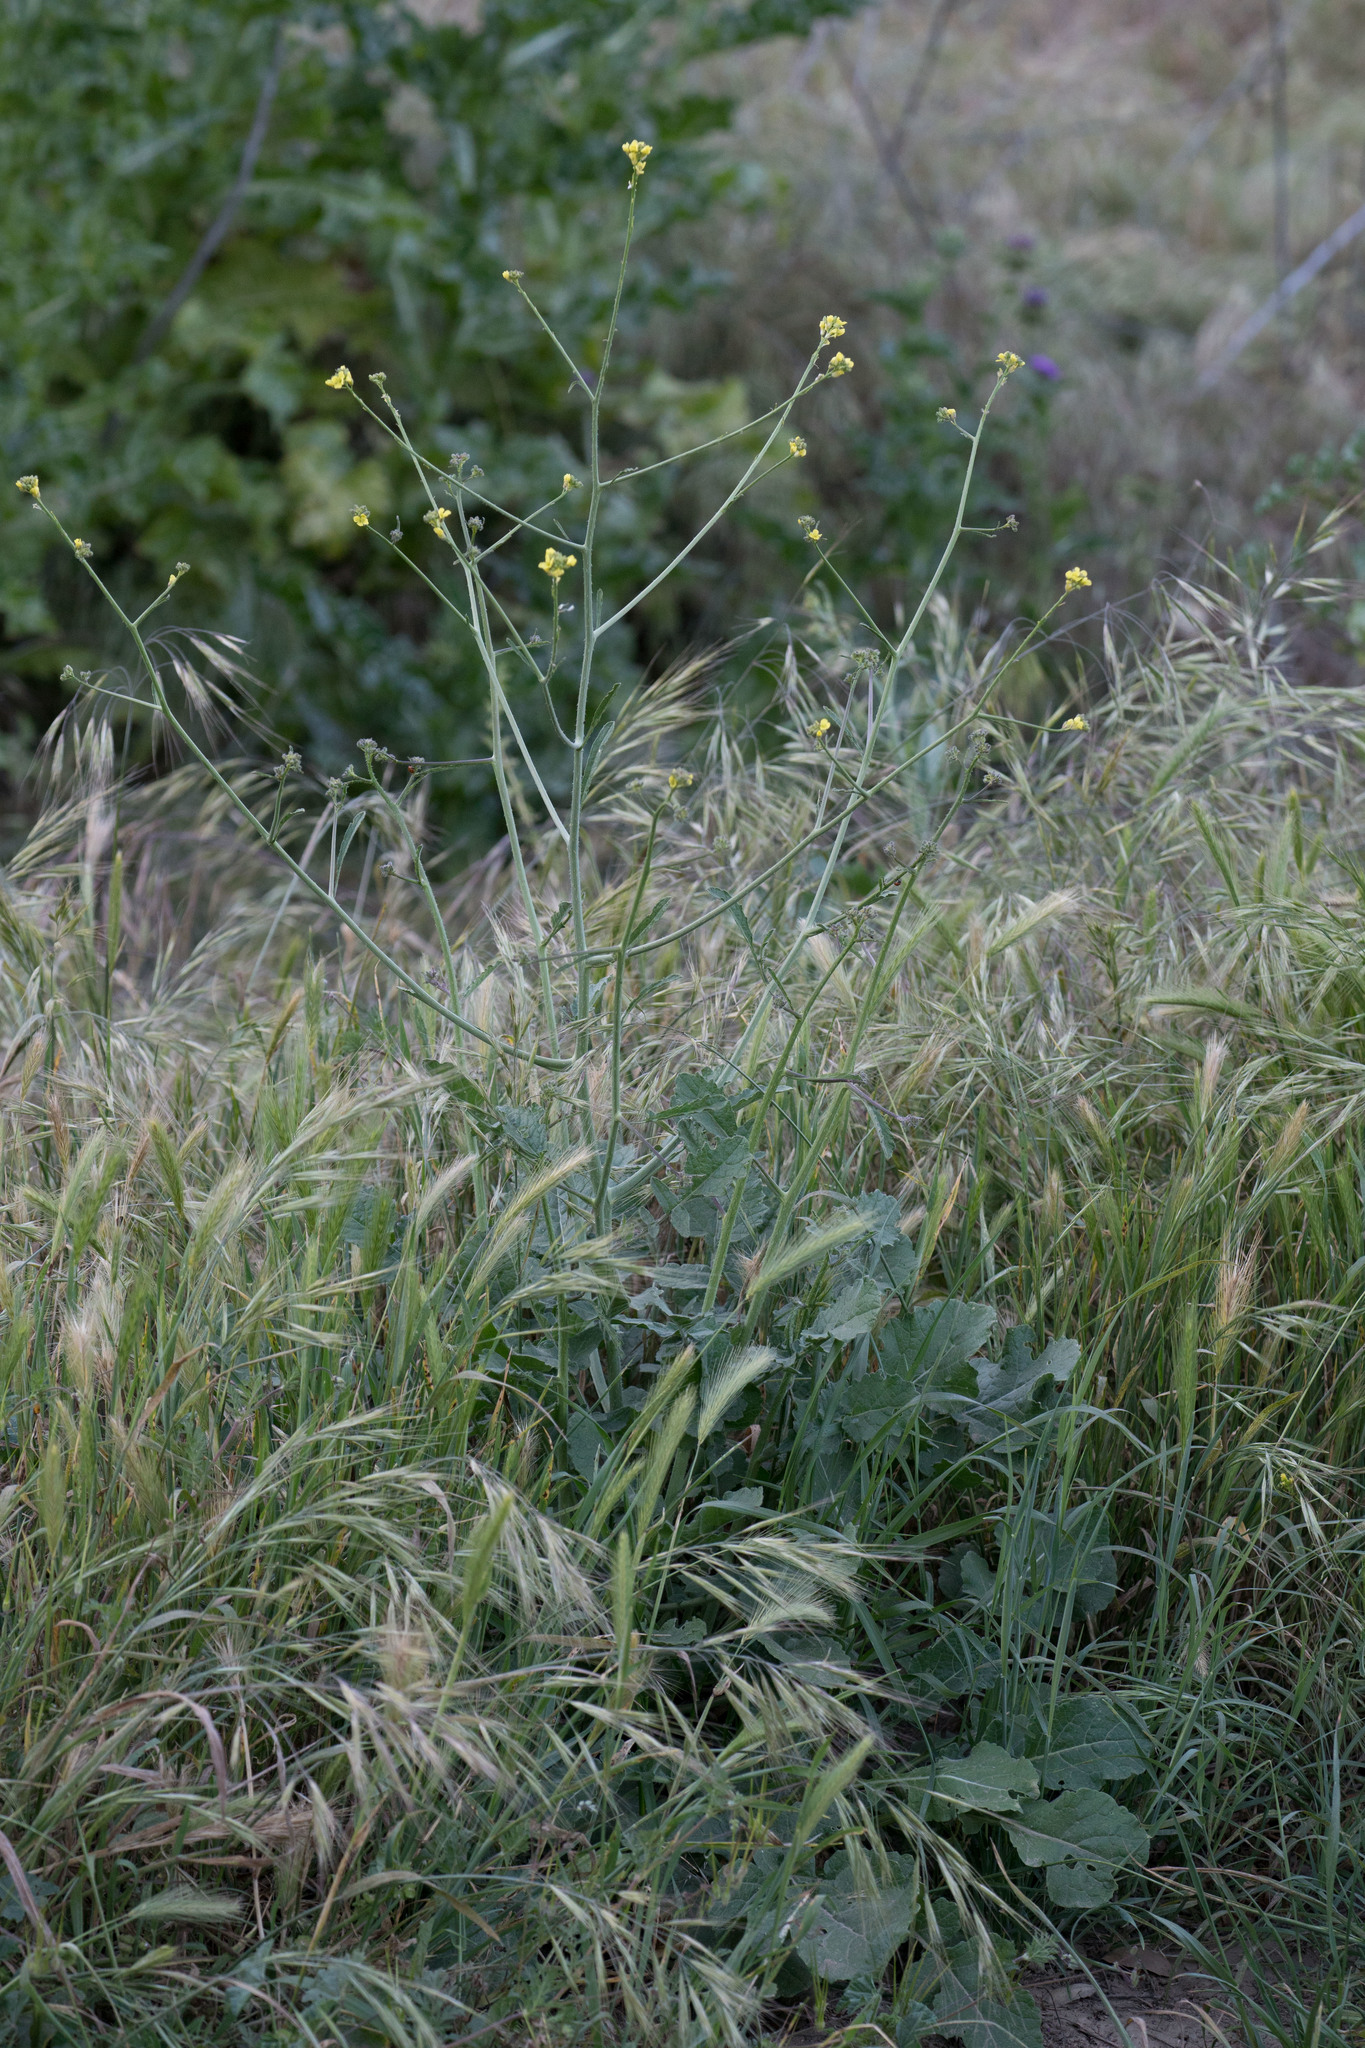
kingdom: Plantae
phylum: Tracheophyta
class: Magnoliopsida
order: Brassicales
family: Brassicaceae
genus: Hirschfeldia
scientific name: Hirschfeldia incana
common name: Hoary mustard
